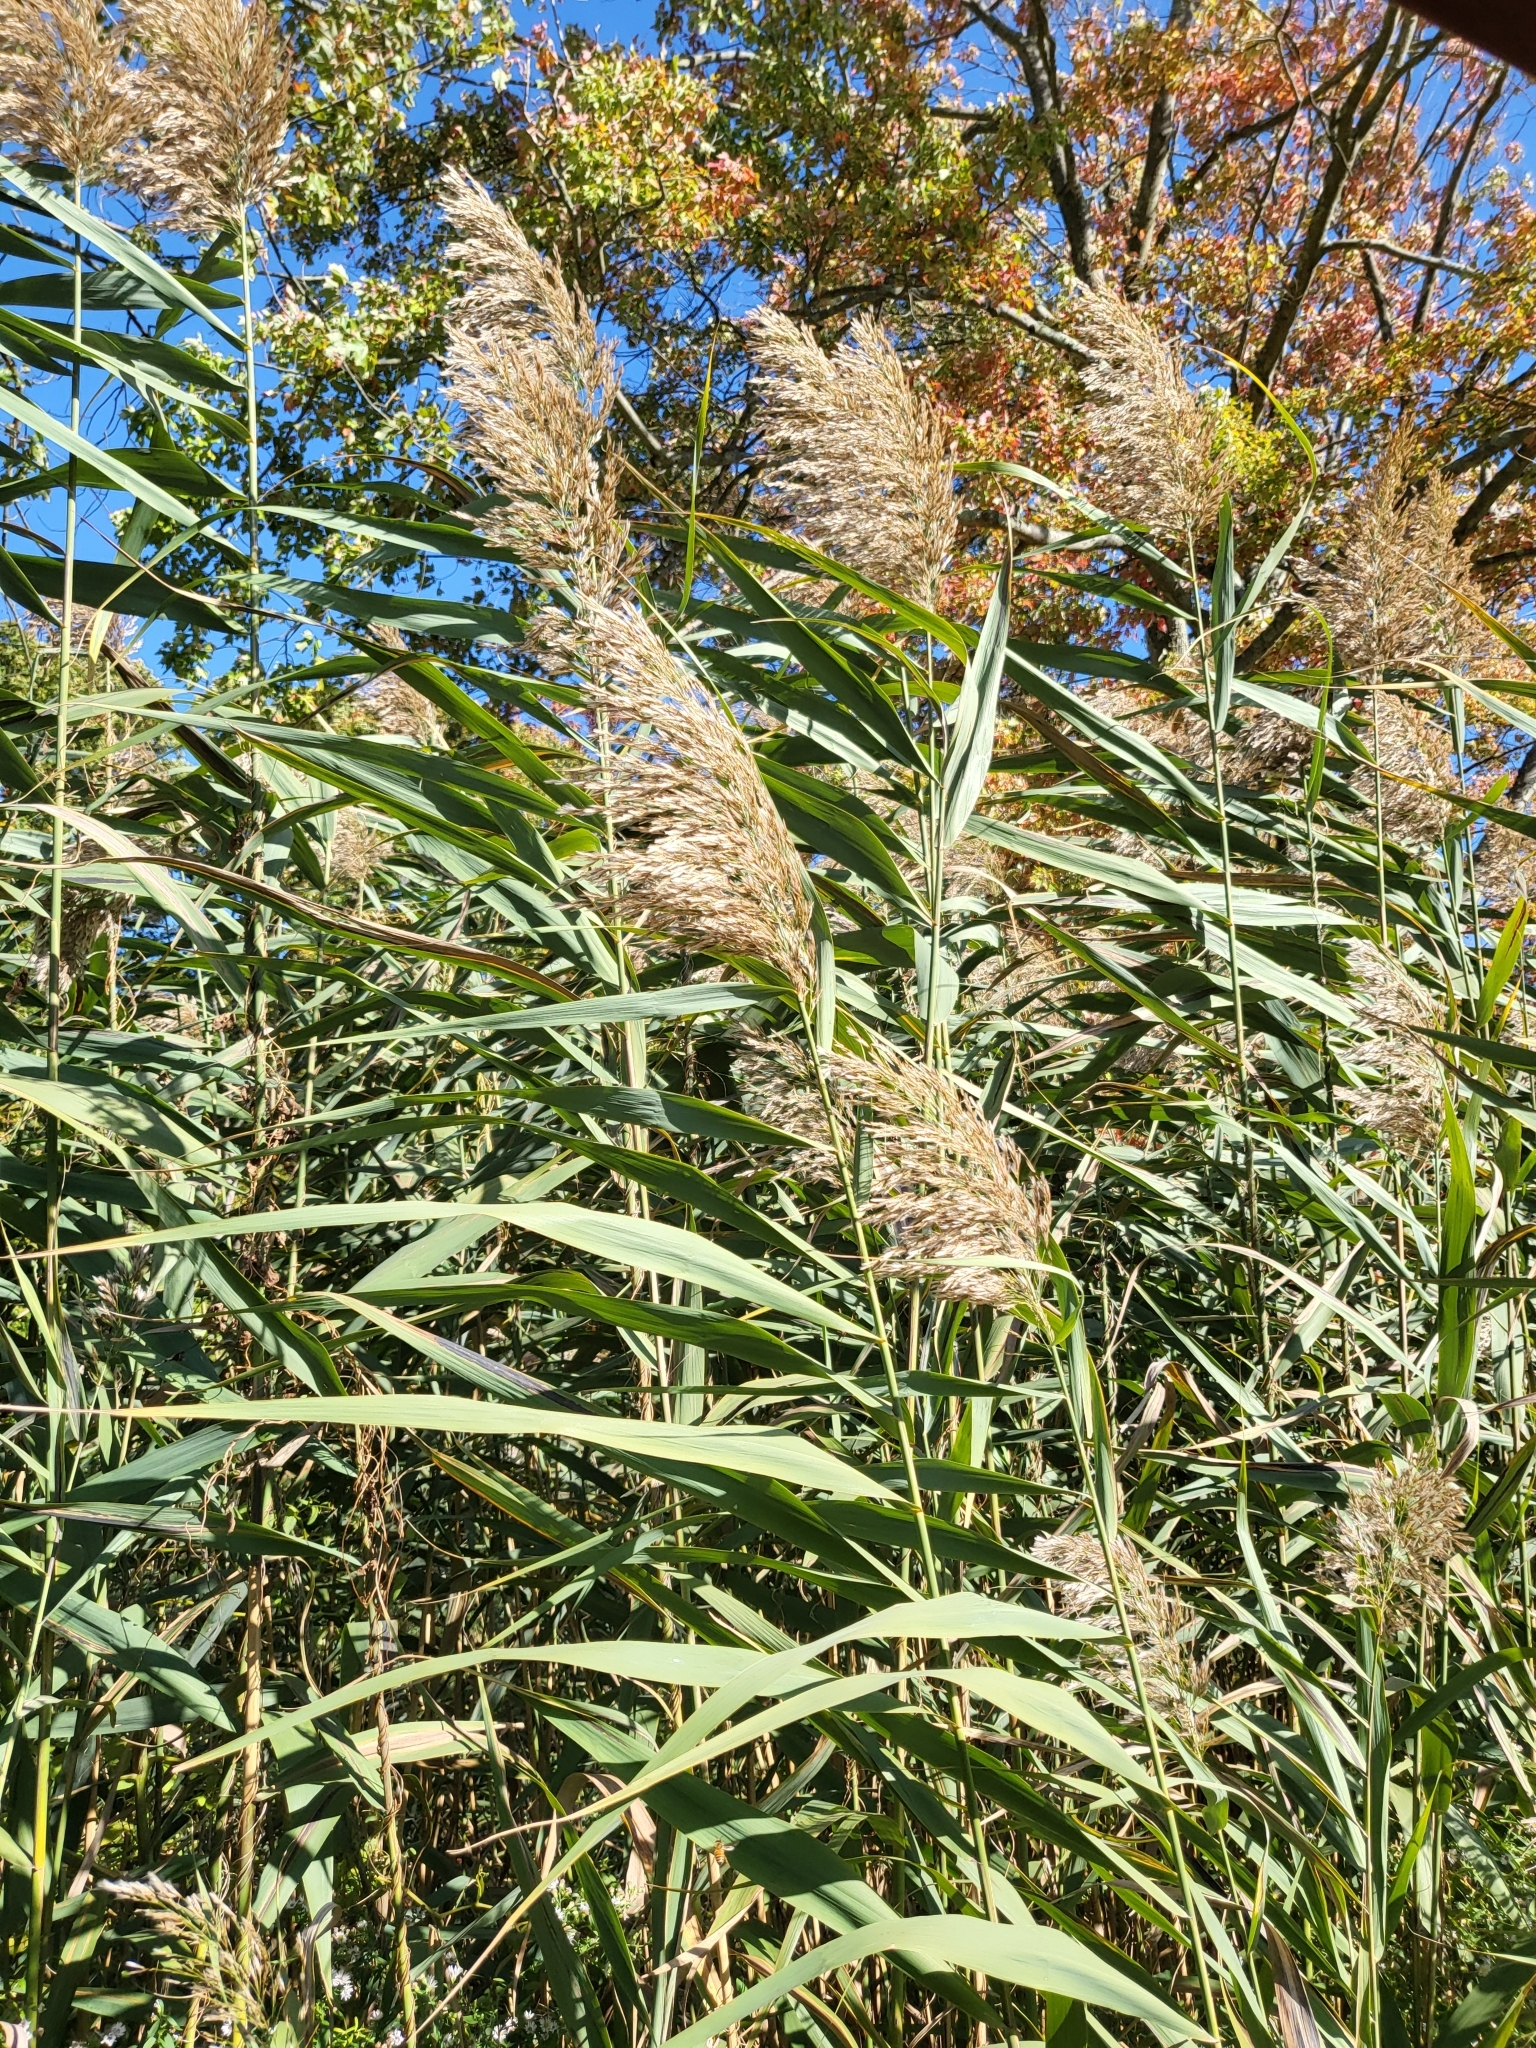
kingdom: Plantae
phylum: Tracheophyta
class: Liliopsida
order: Poales
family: Poaceae
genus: Phragmites
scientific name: Phragmites australis
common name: Common reed
